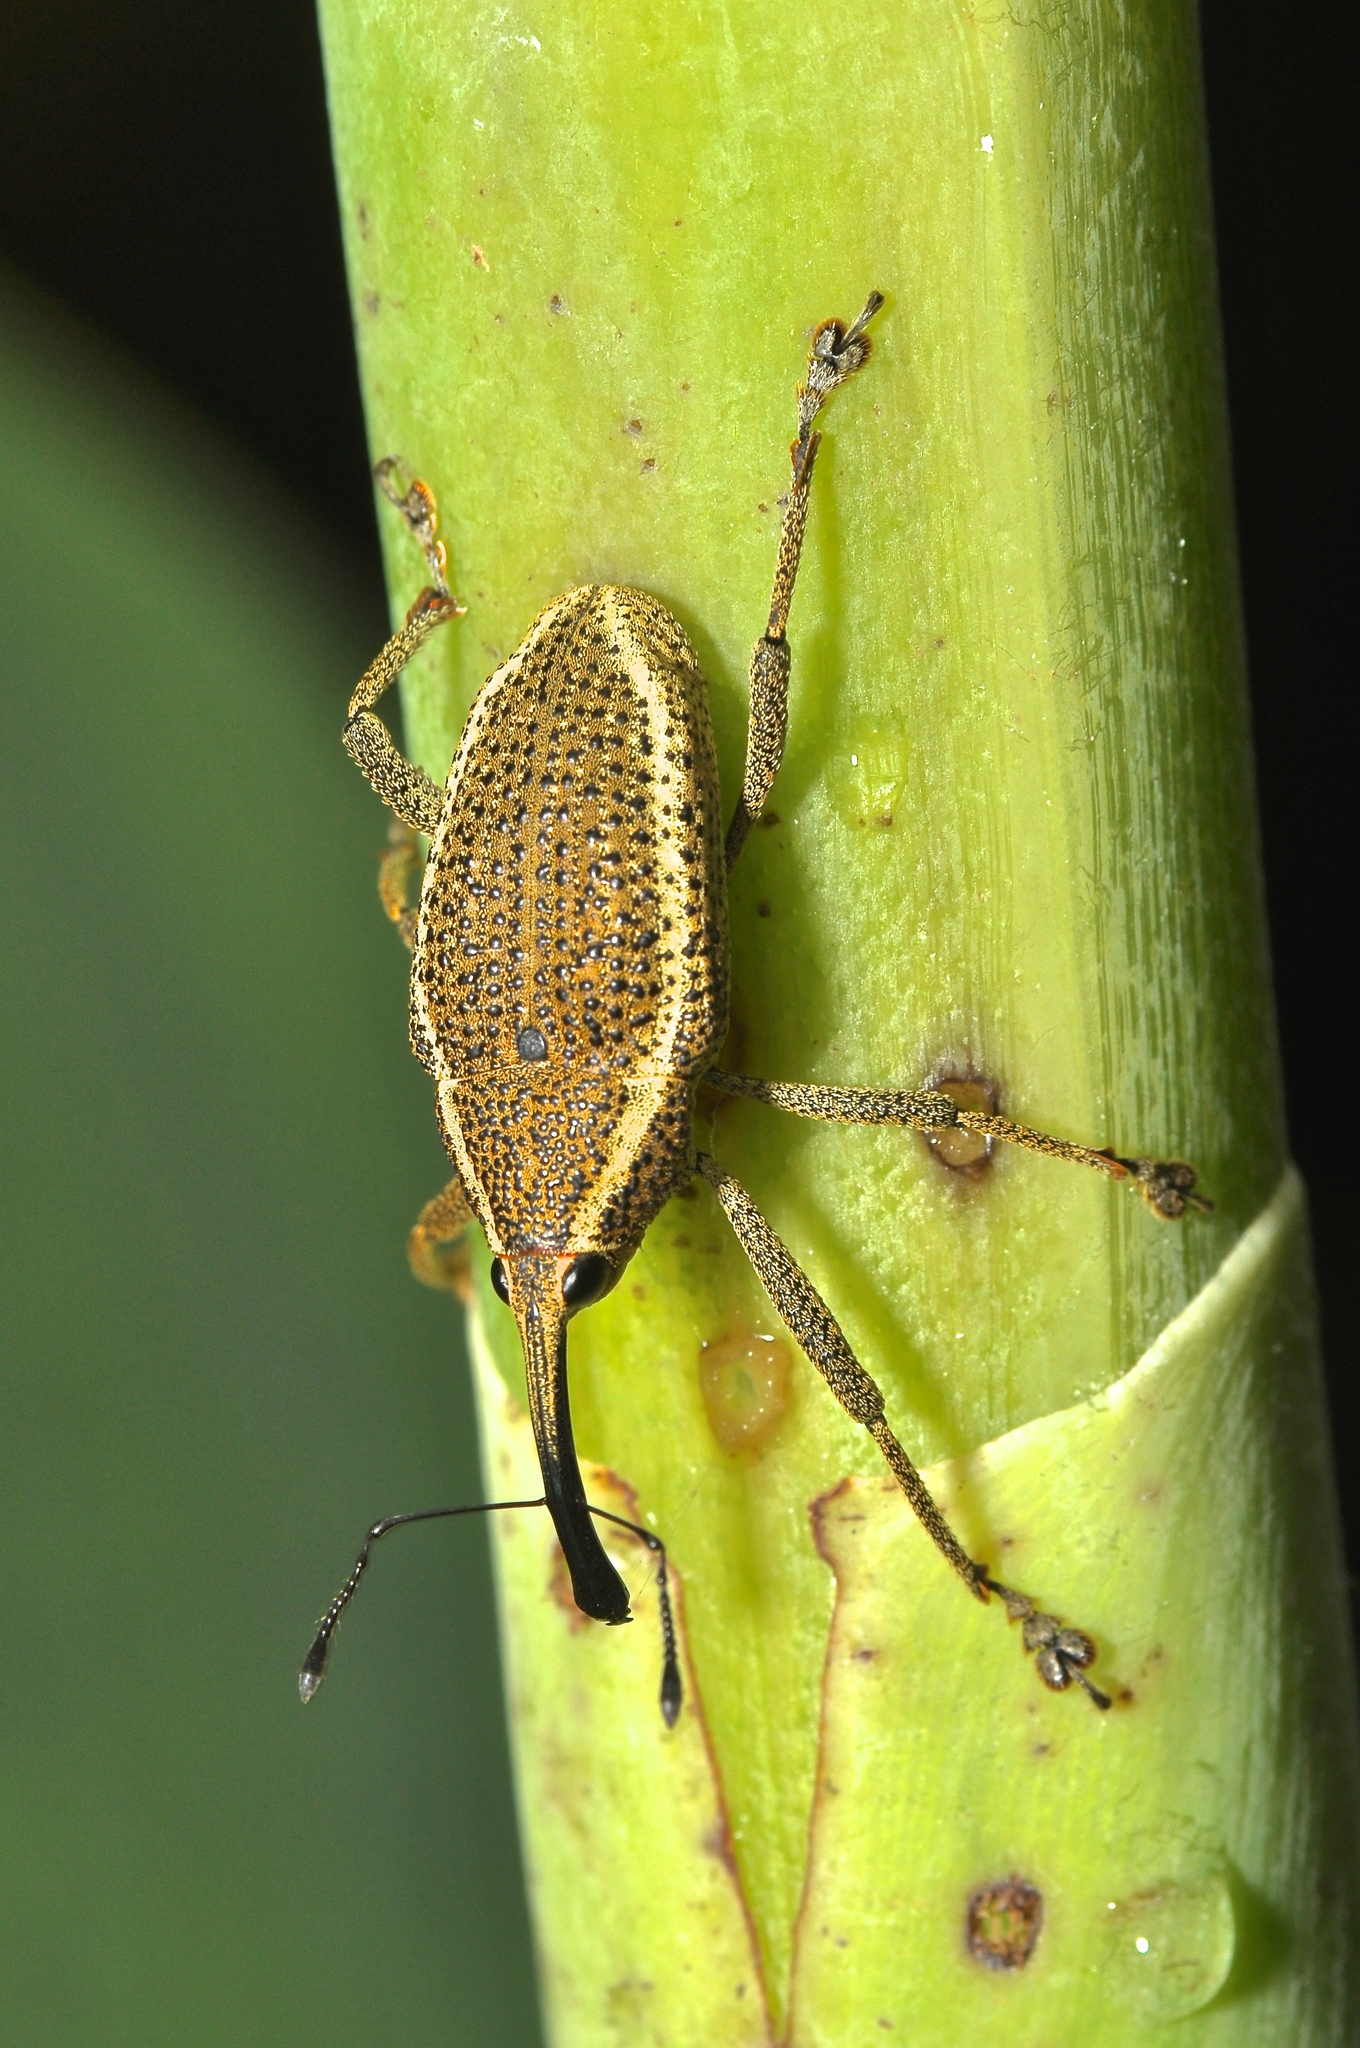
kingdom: Animalia
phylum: Arthropoda
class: Insecta
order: Coleoptera
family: Curculionidae
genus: Cholus
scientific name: Cholus cinctus
